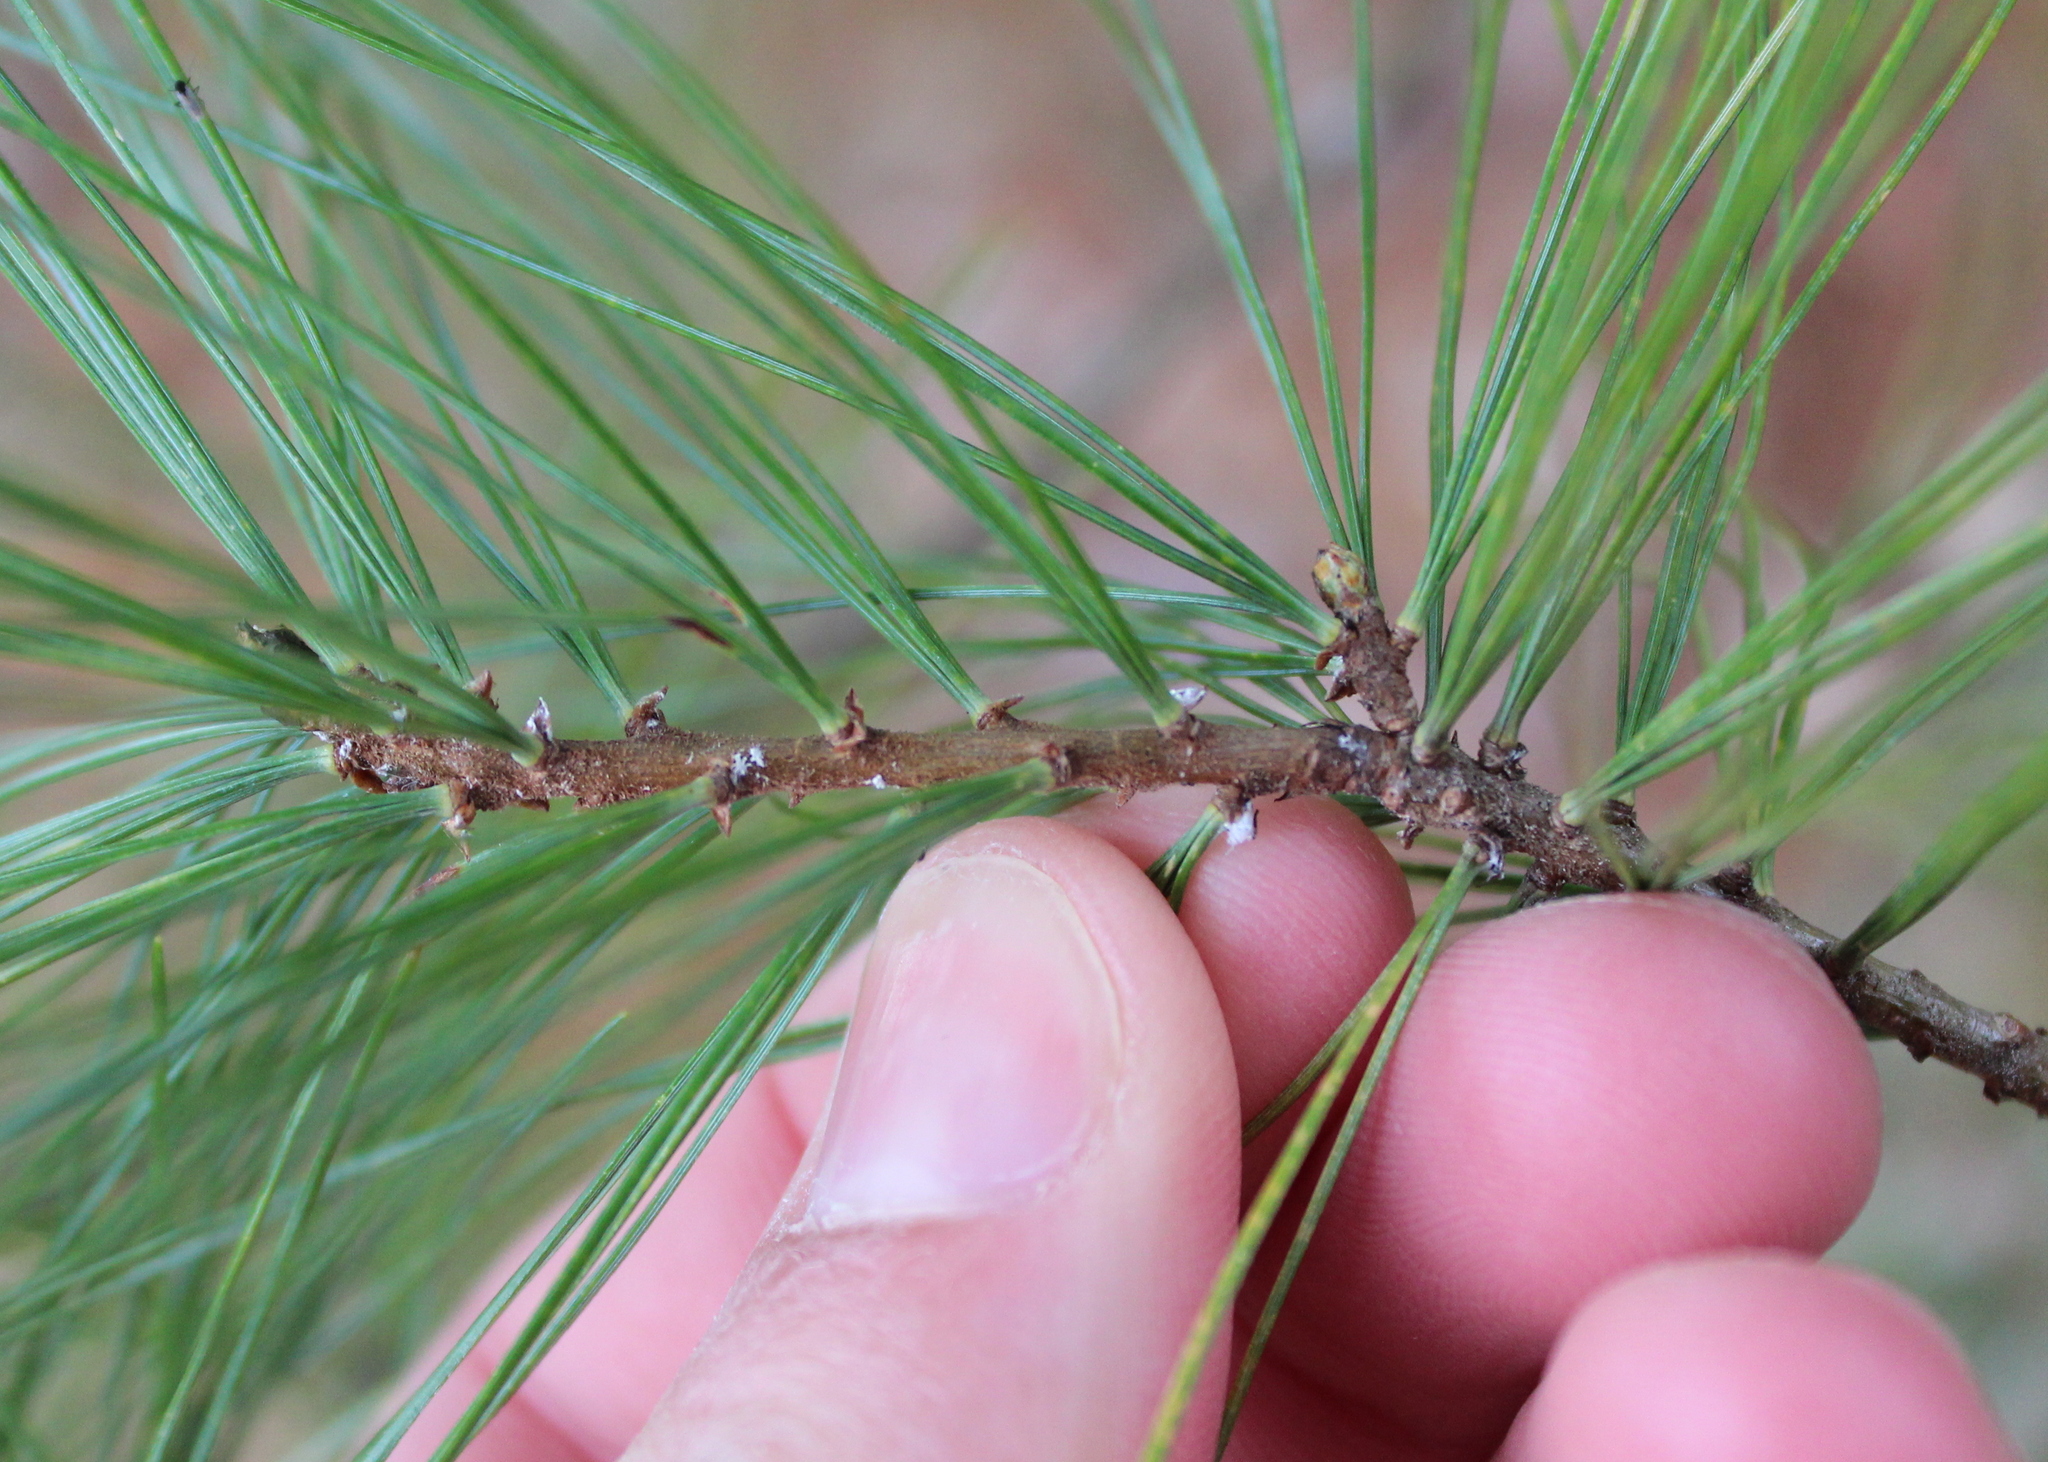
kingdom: Plantae
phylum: Tracheophyta
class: Pinopsida
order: Pinales
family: Pinaceae
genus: Pinus
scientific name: Pinus strobus
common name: Weymouth pine
